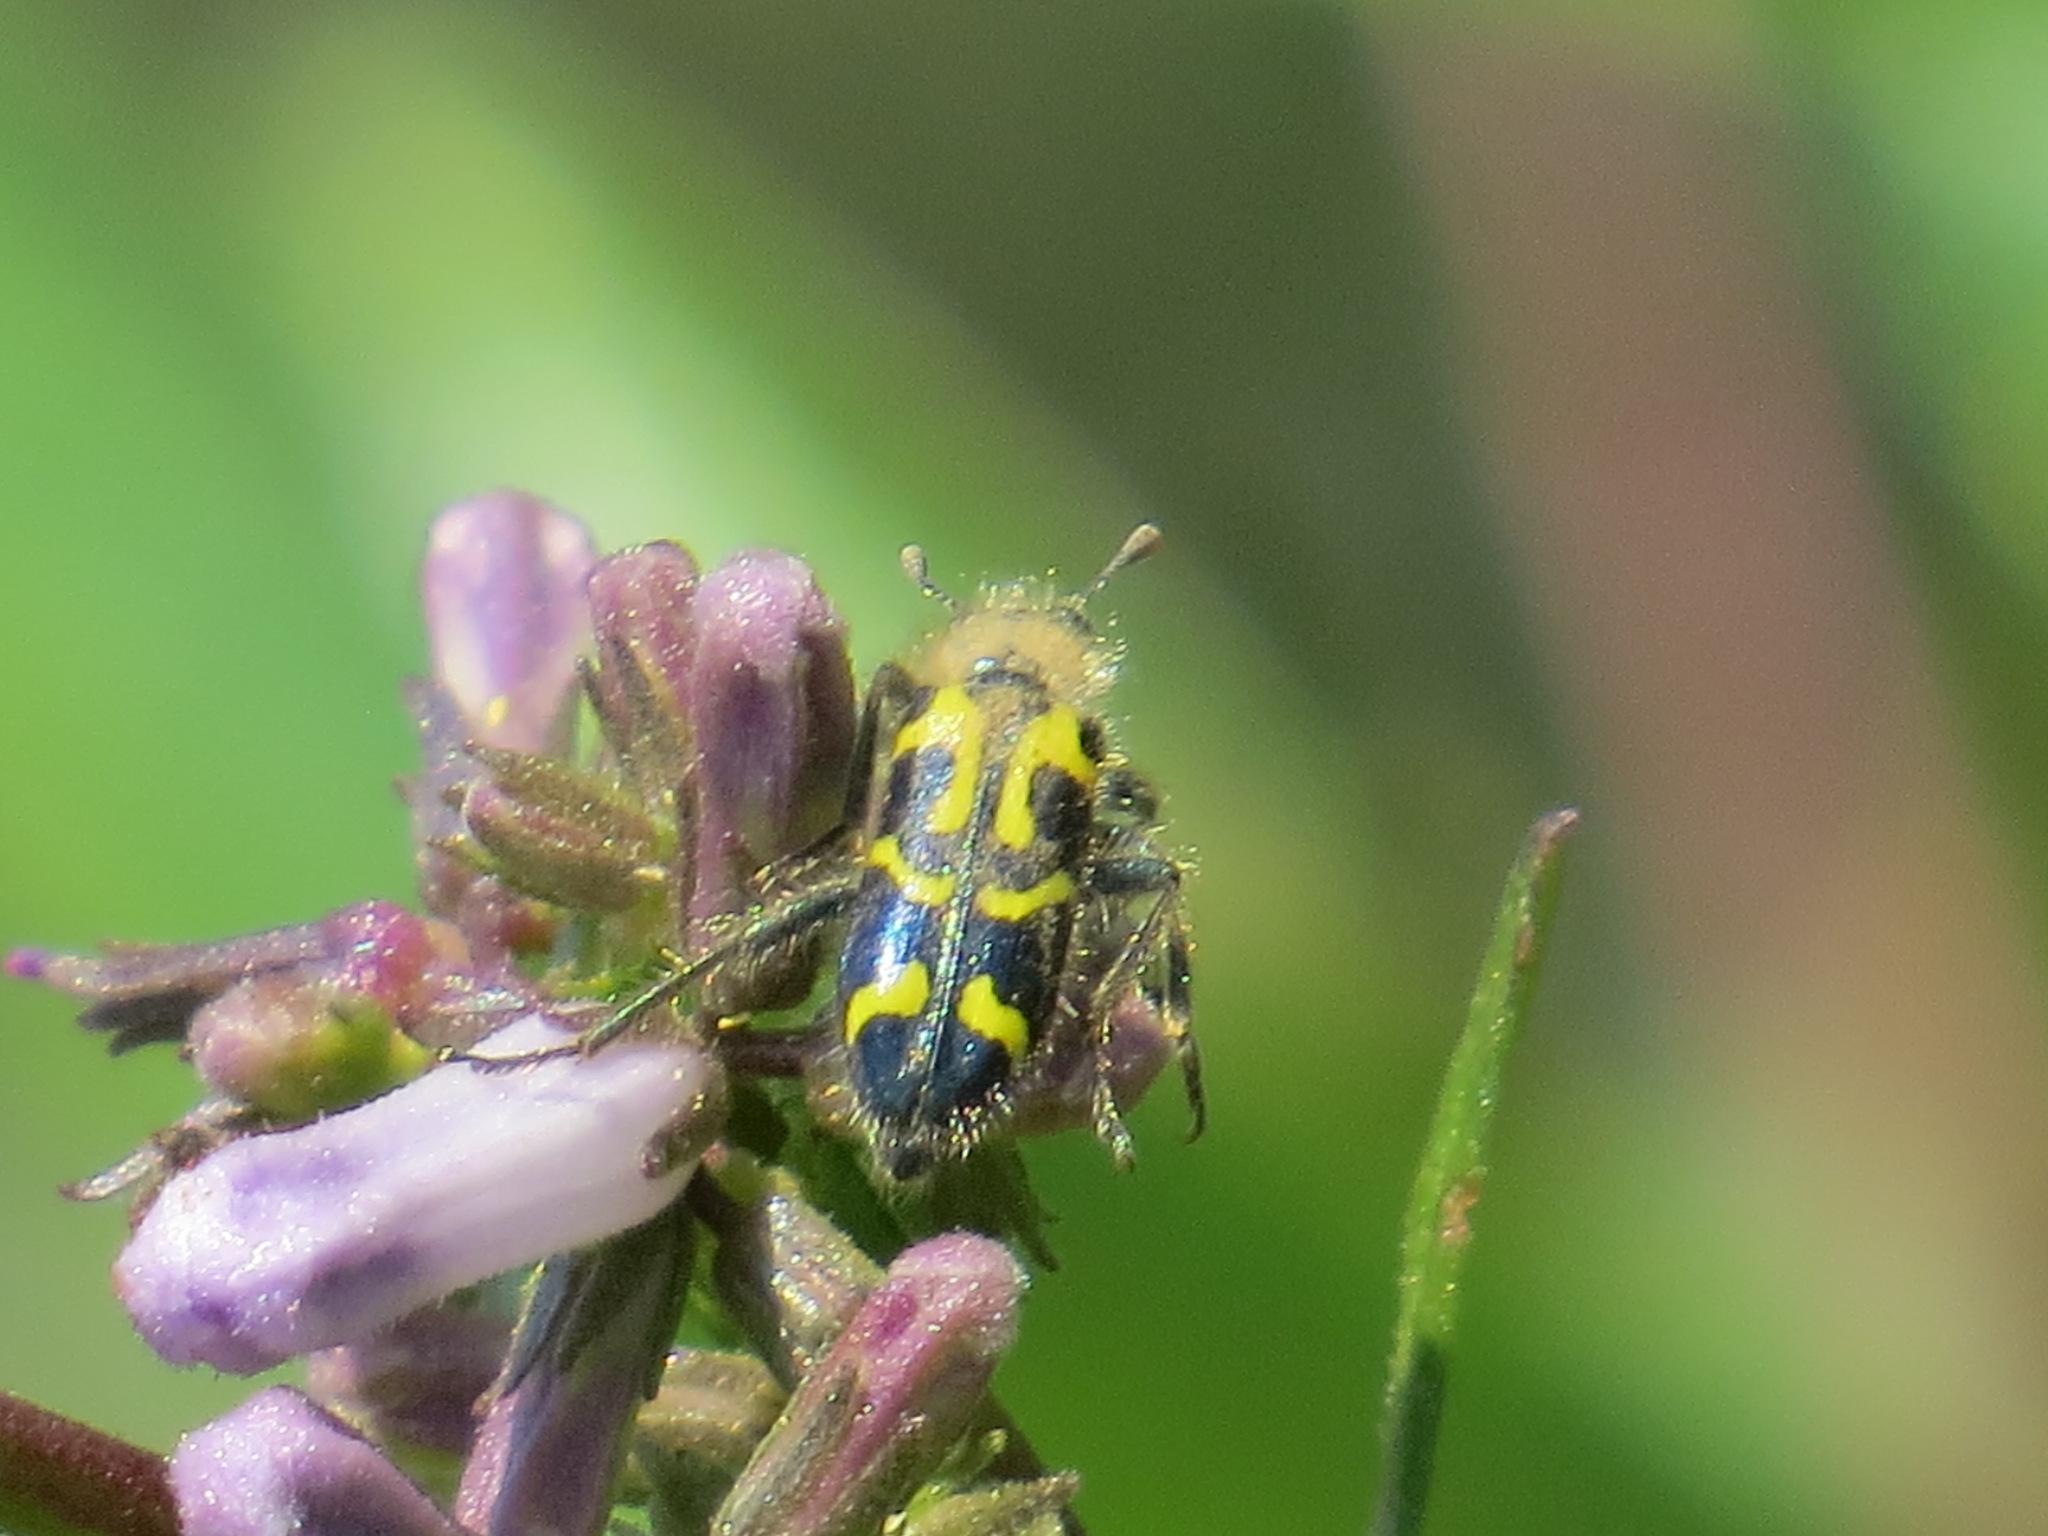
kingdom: Animalia
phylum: Arthropoda
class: Insecta
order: Coleoptera
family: Cleridae
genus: Trichodes
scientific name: Trichodes ornatus
